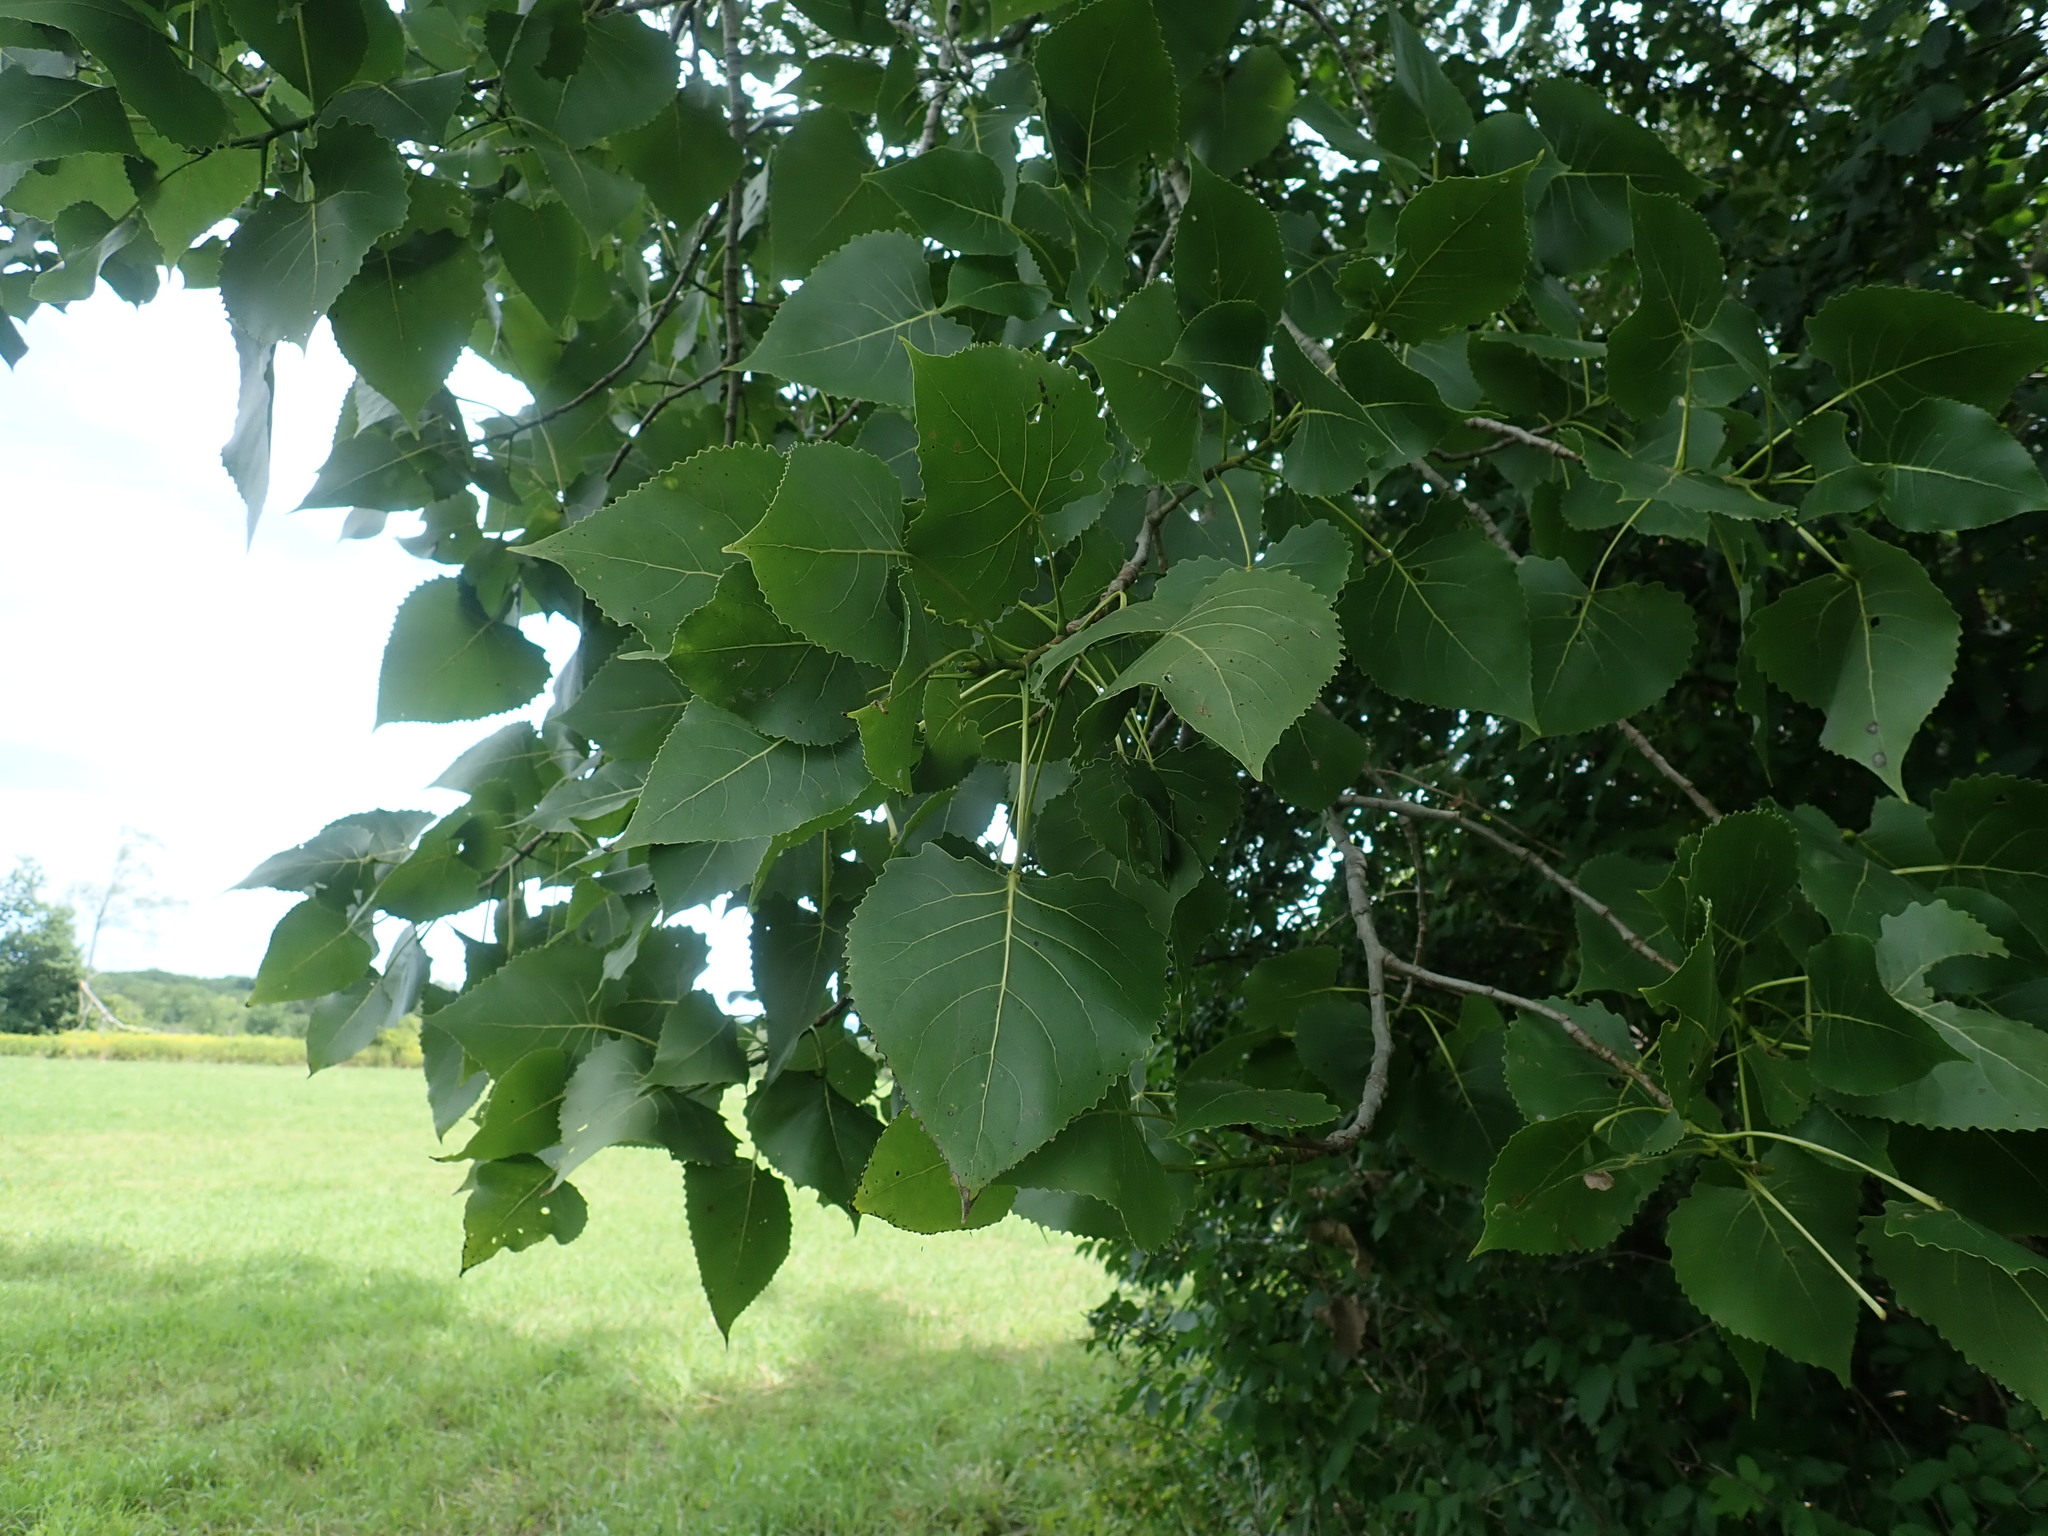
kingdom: Plantae
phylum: Tracheophyta
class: Magnoliopsida
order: Malpighiales
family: Salicaceae
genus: Populus
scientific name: Populus deltoides
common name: Eastern cottonwood
